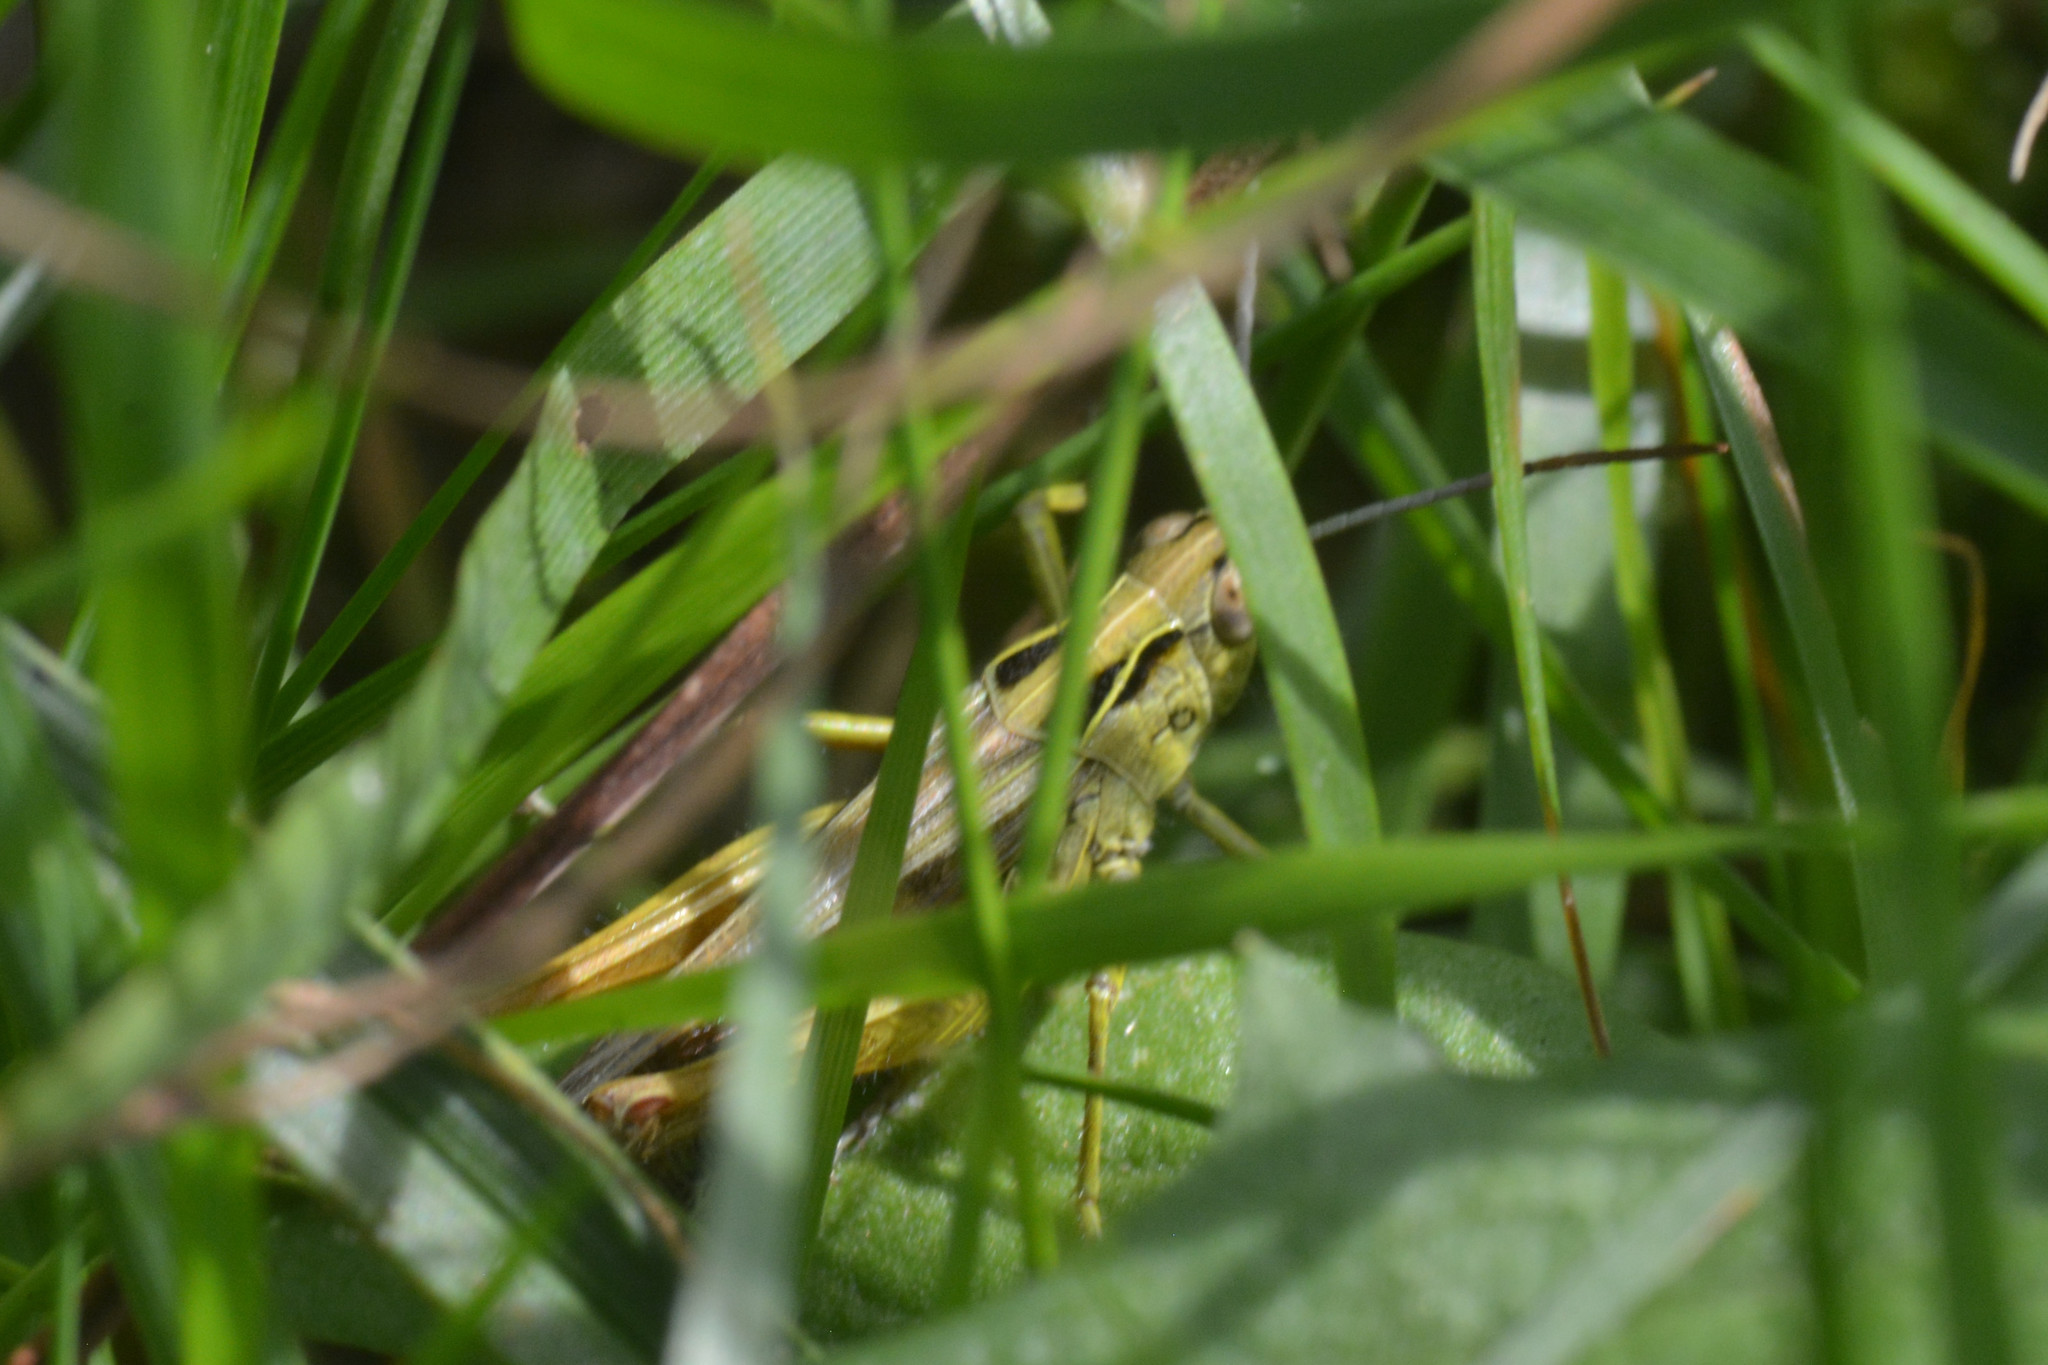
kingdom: Animalia
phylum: Arthropoda
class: Insecta
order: Orthoptera
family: Acrididae
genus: Omocestus
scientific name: Omocestus viridulus
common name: Common green grasshopper
